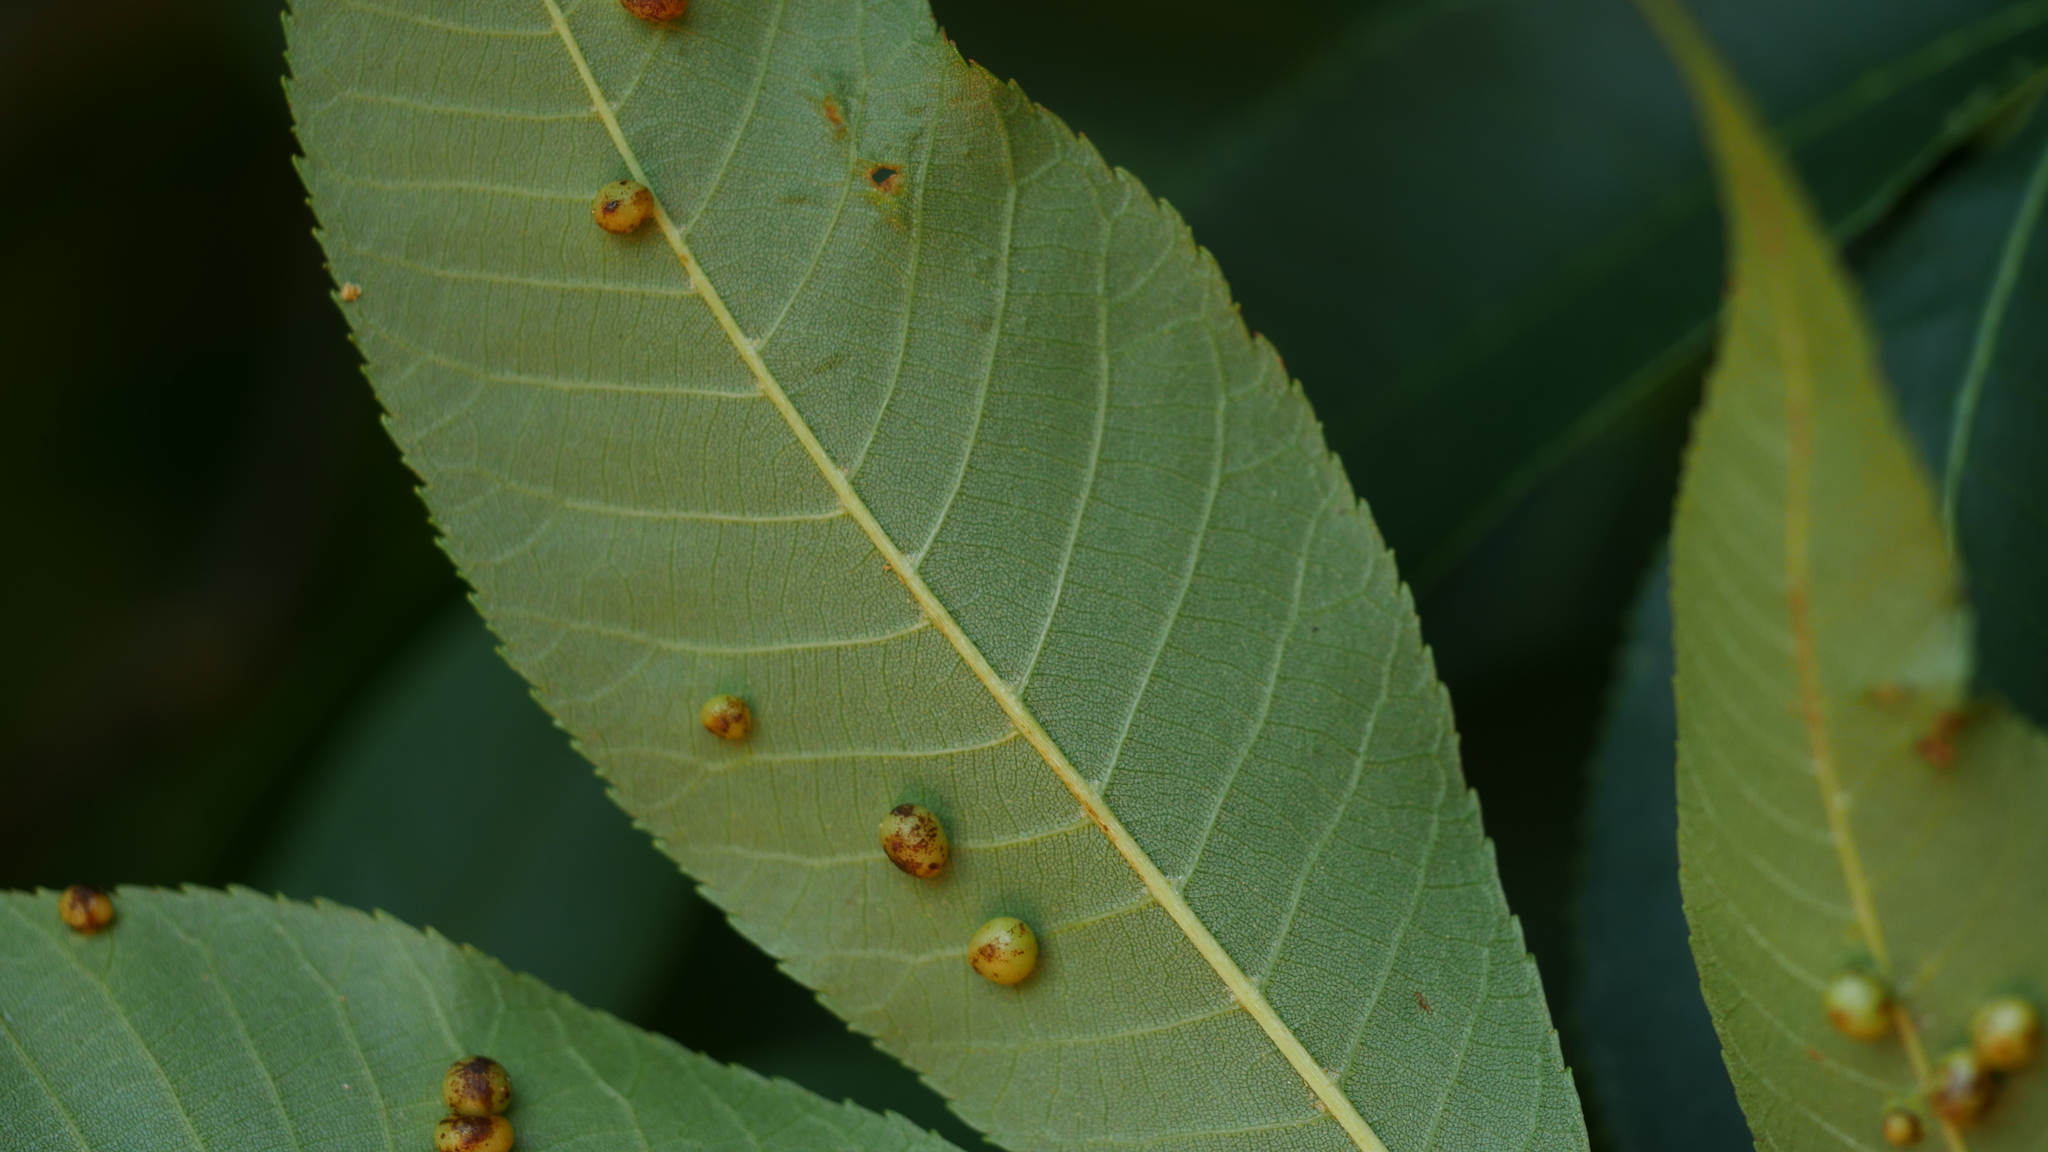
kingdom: Animalia
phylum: Arthropoda
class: Insecta
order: Diptera
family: Cecidomyiidae
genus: Caryomyia
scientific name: Caryomyia caryae
